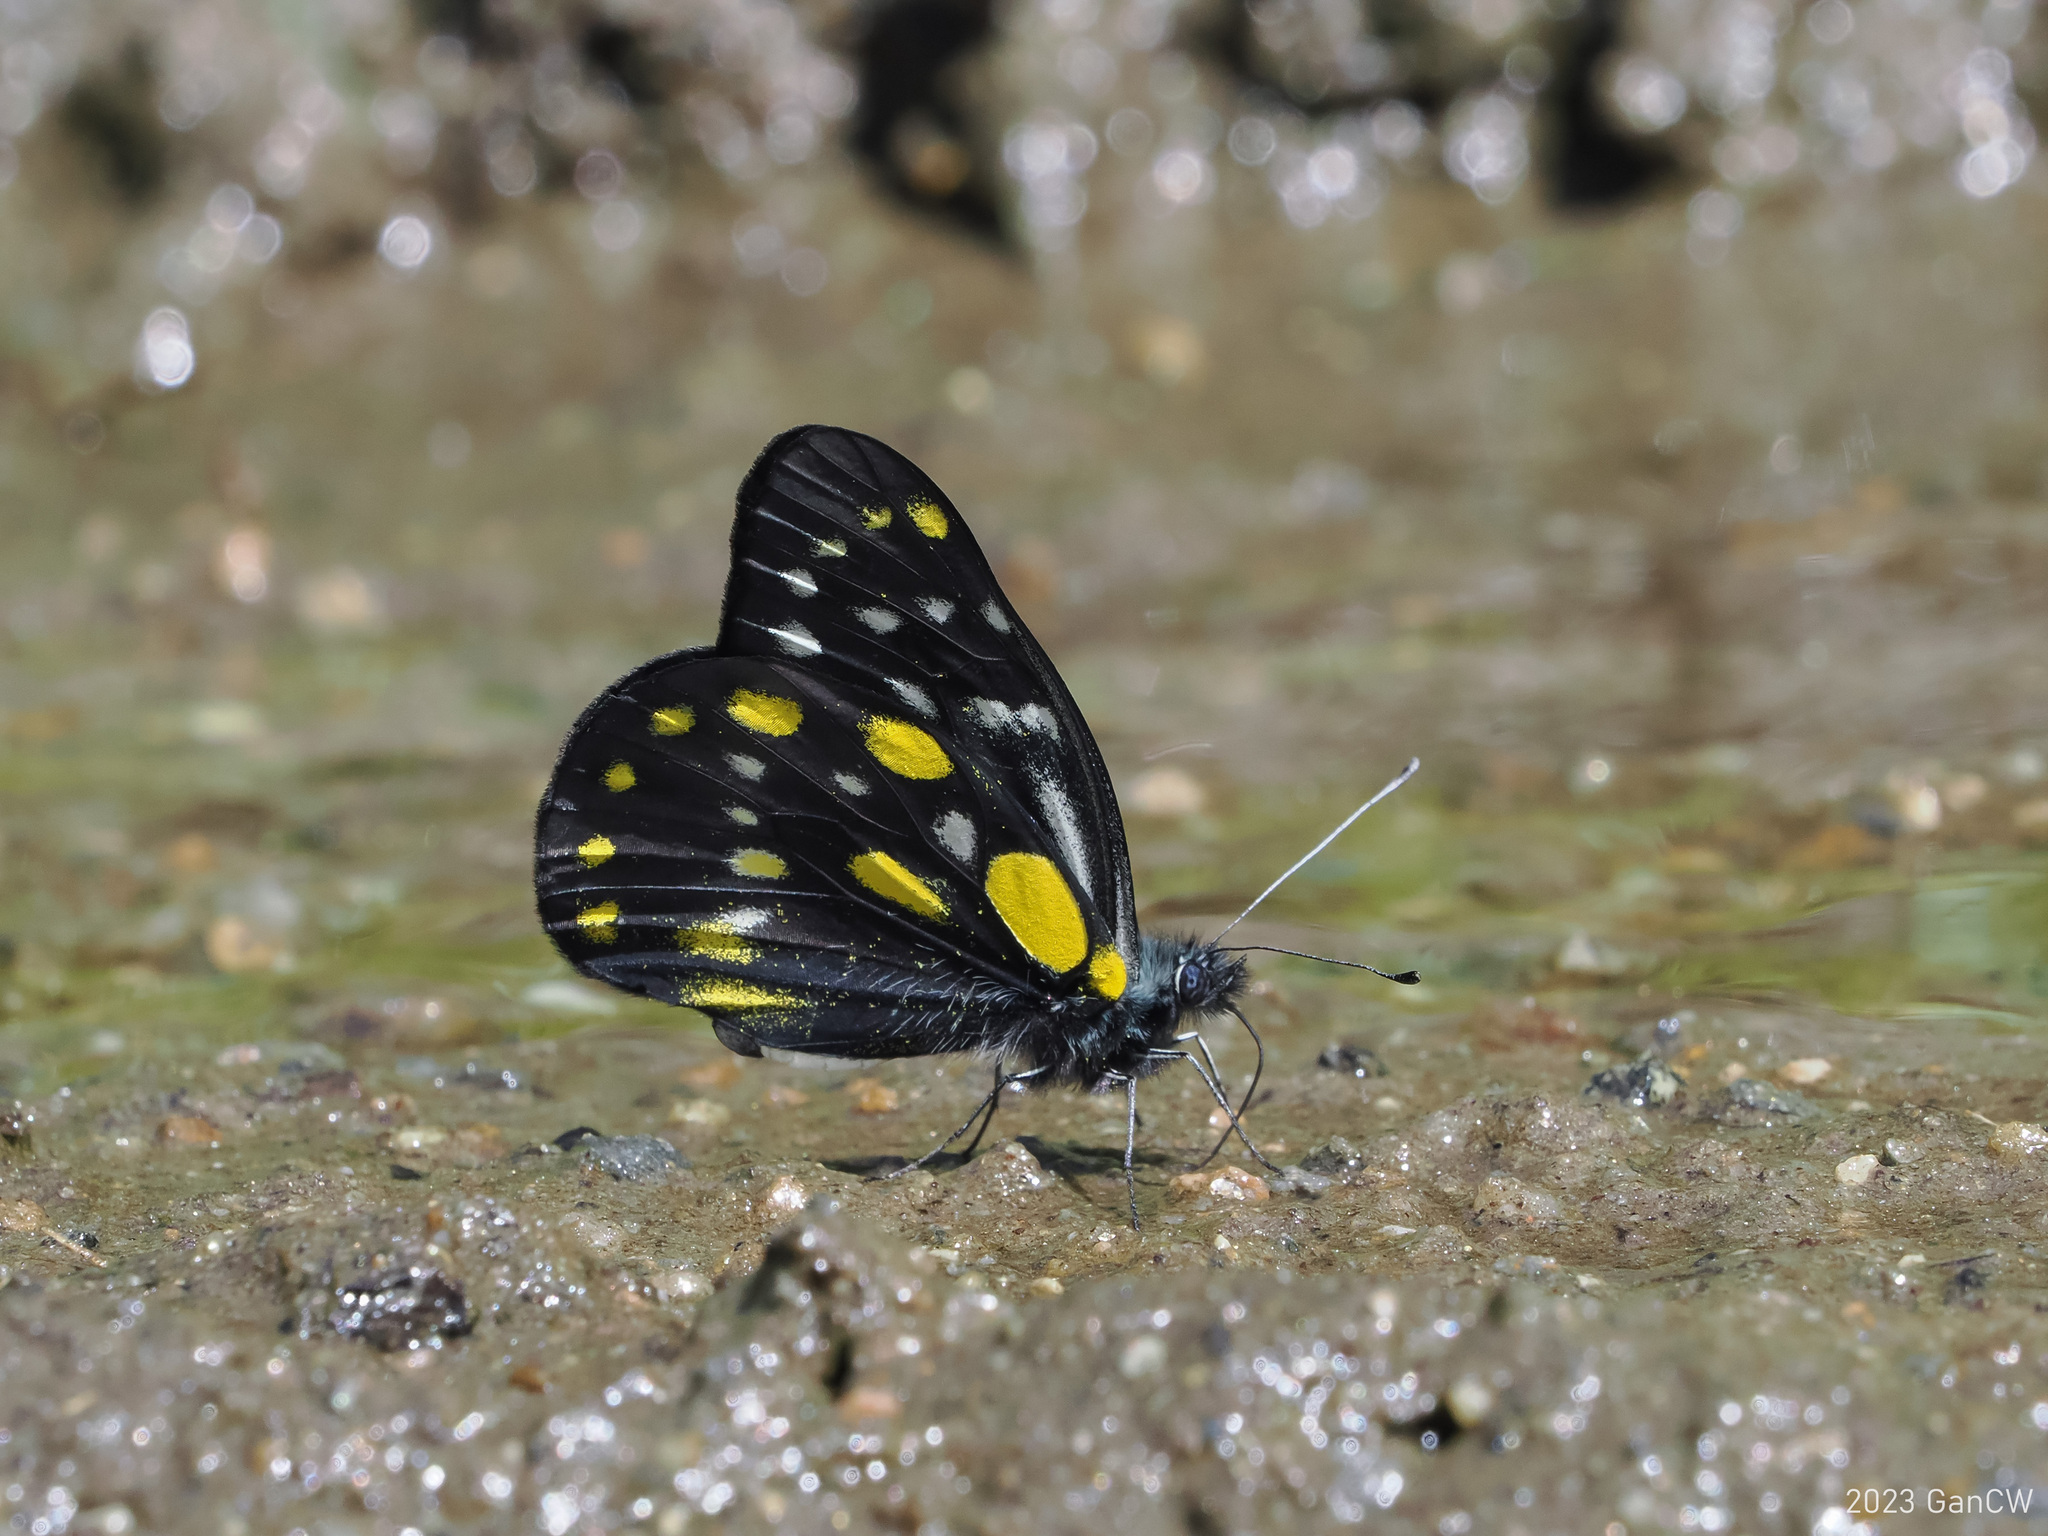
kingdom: Animalia
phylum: Arthropoda
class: Insecta
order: Lepidoptera
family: Pieridae
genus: Delias
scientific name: Delias belladonna
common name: Hill jezebel
